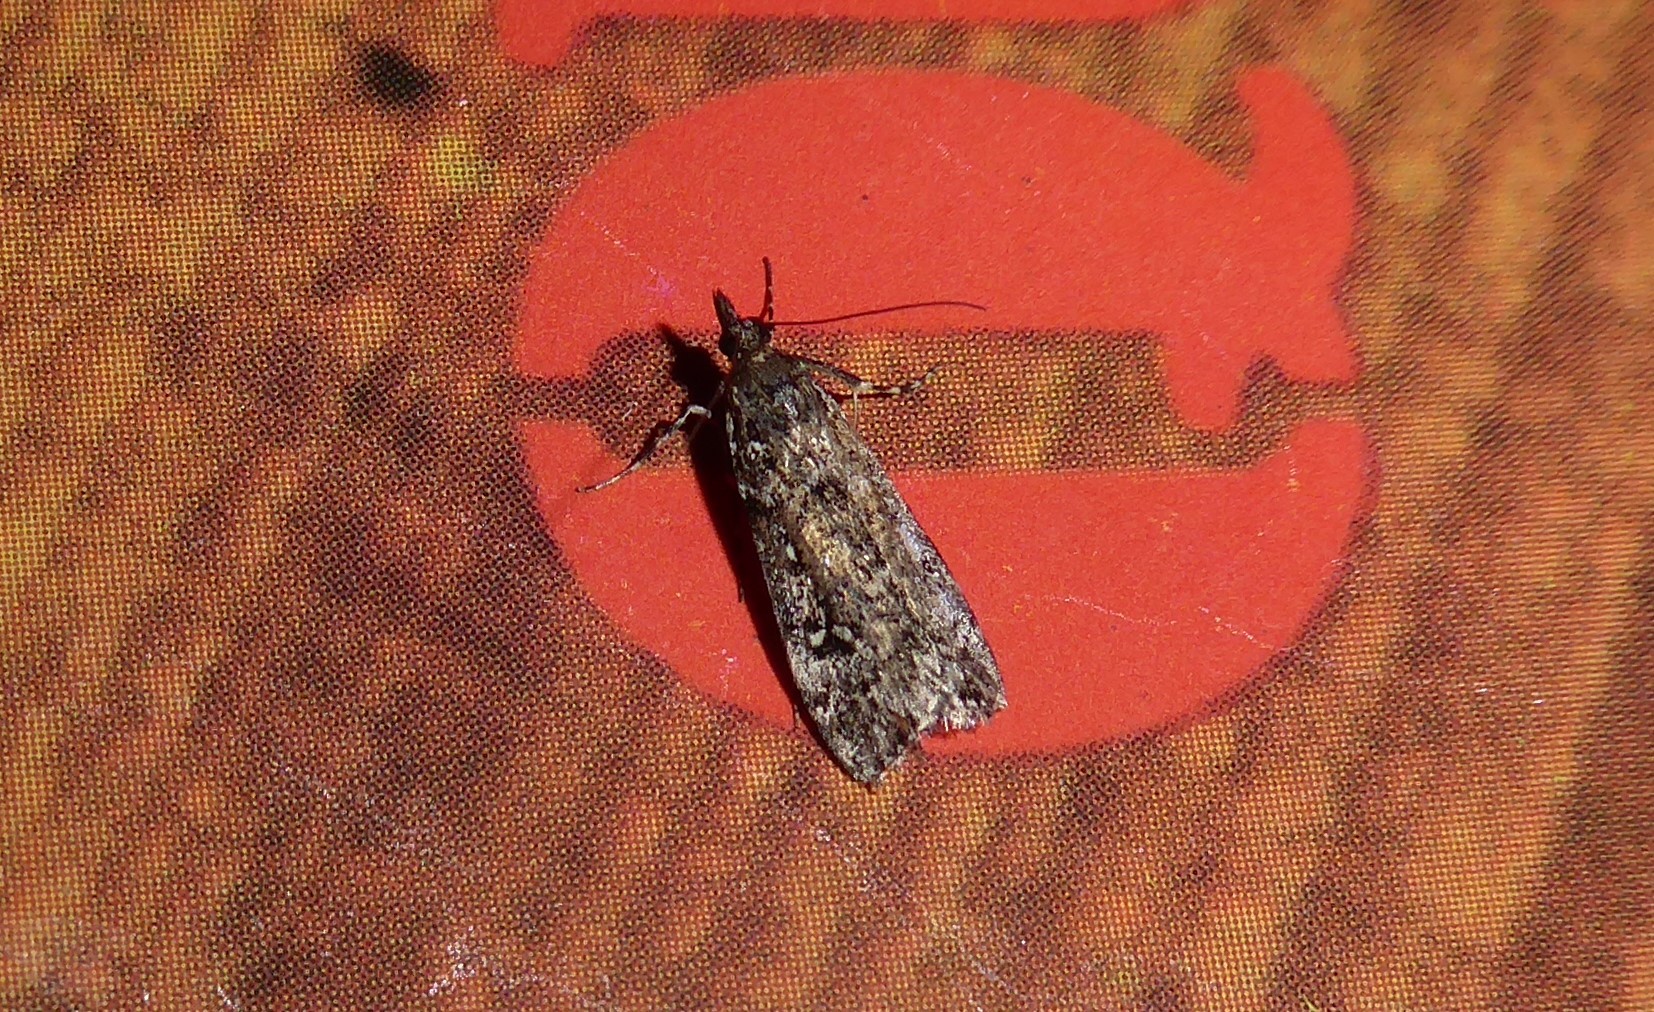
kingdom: Animalia
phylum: Arthropoda
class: Insecta
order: Lepidoptera
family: Crambidae
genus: Eudonia
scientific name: Eudonia philerga
